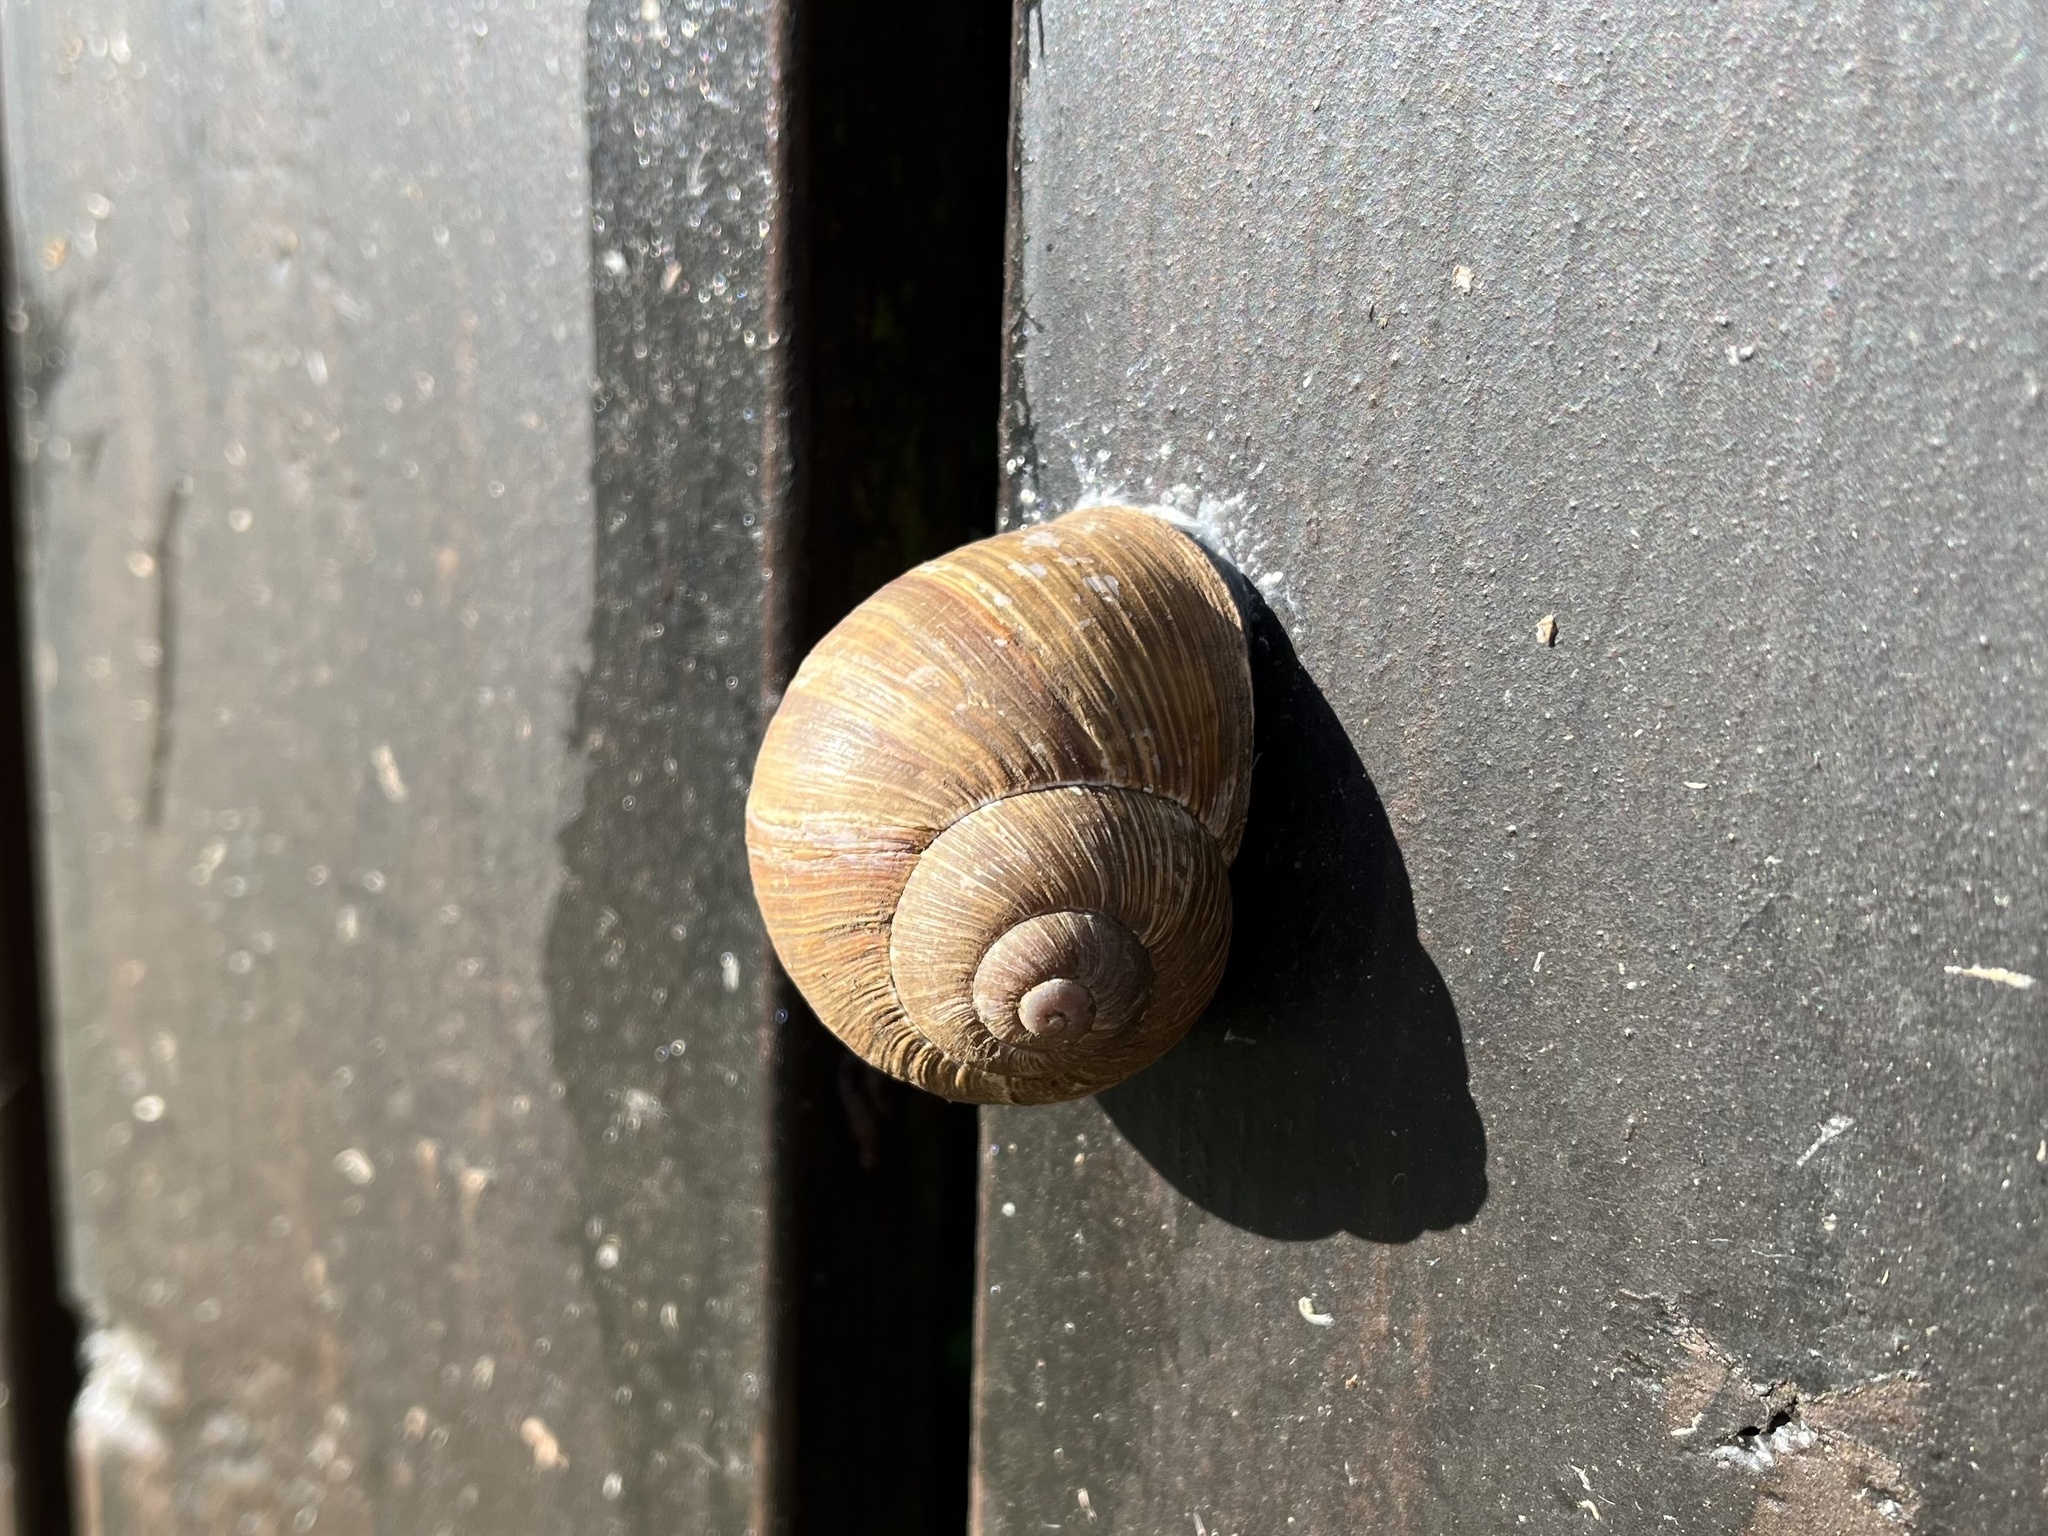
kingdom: Animalia
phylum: Mollusca
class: Gastropoda
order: Stylommatophora
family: Helicidae
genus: Helix
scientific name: Helix pomatia
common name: Roman snail
